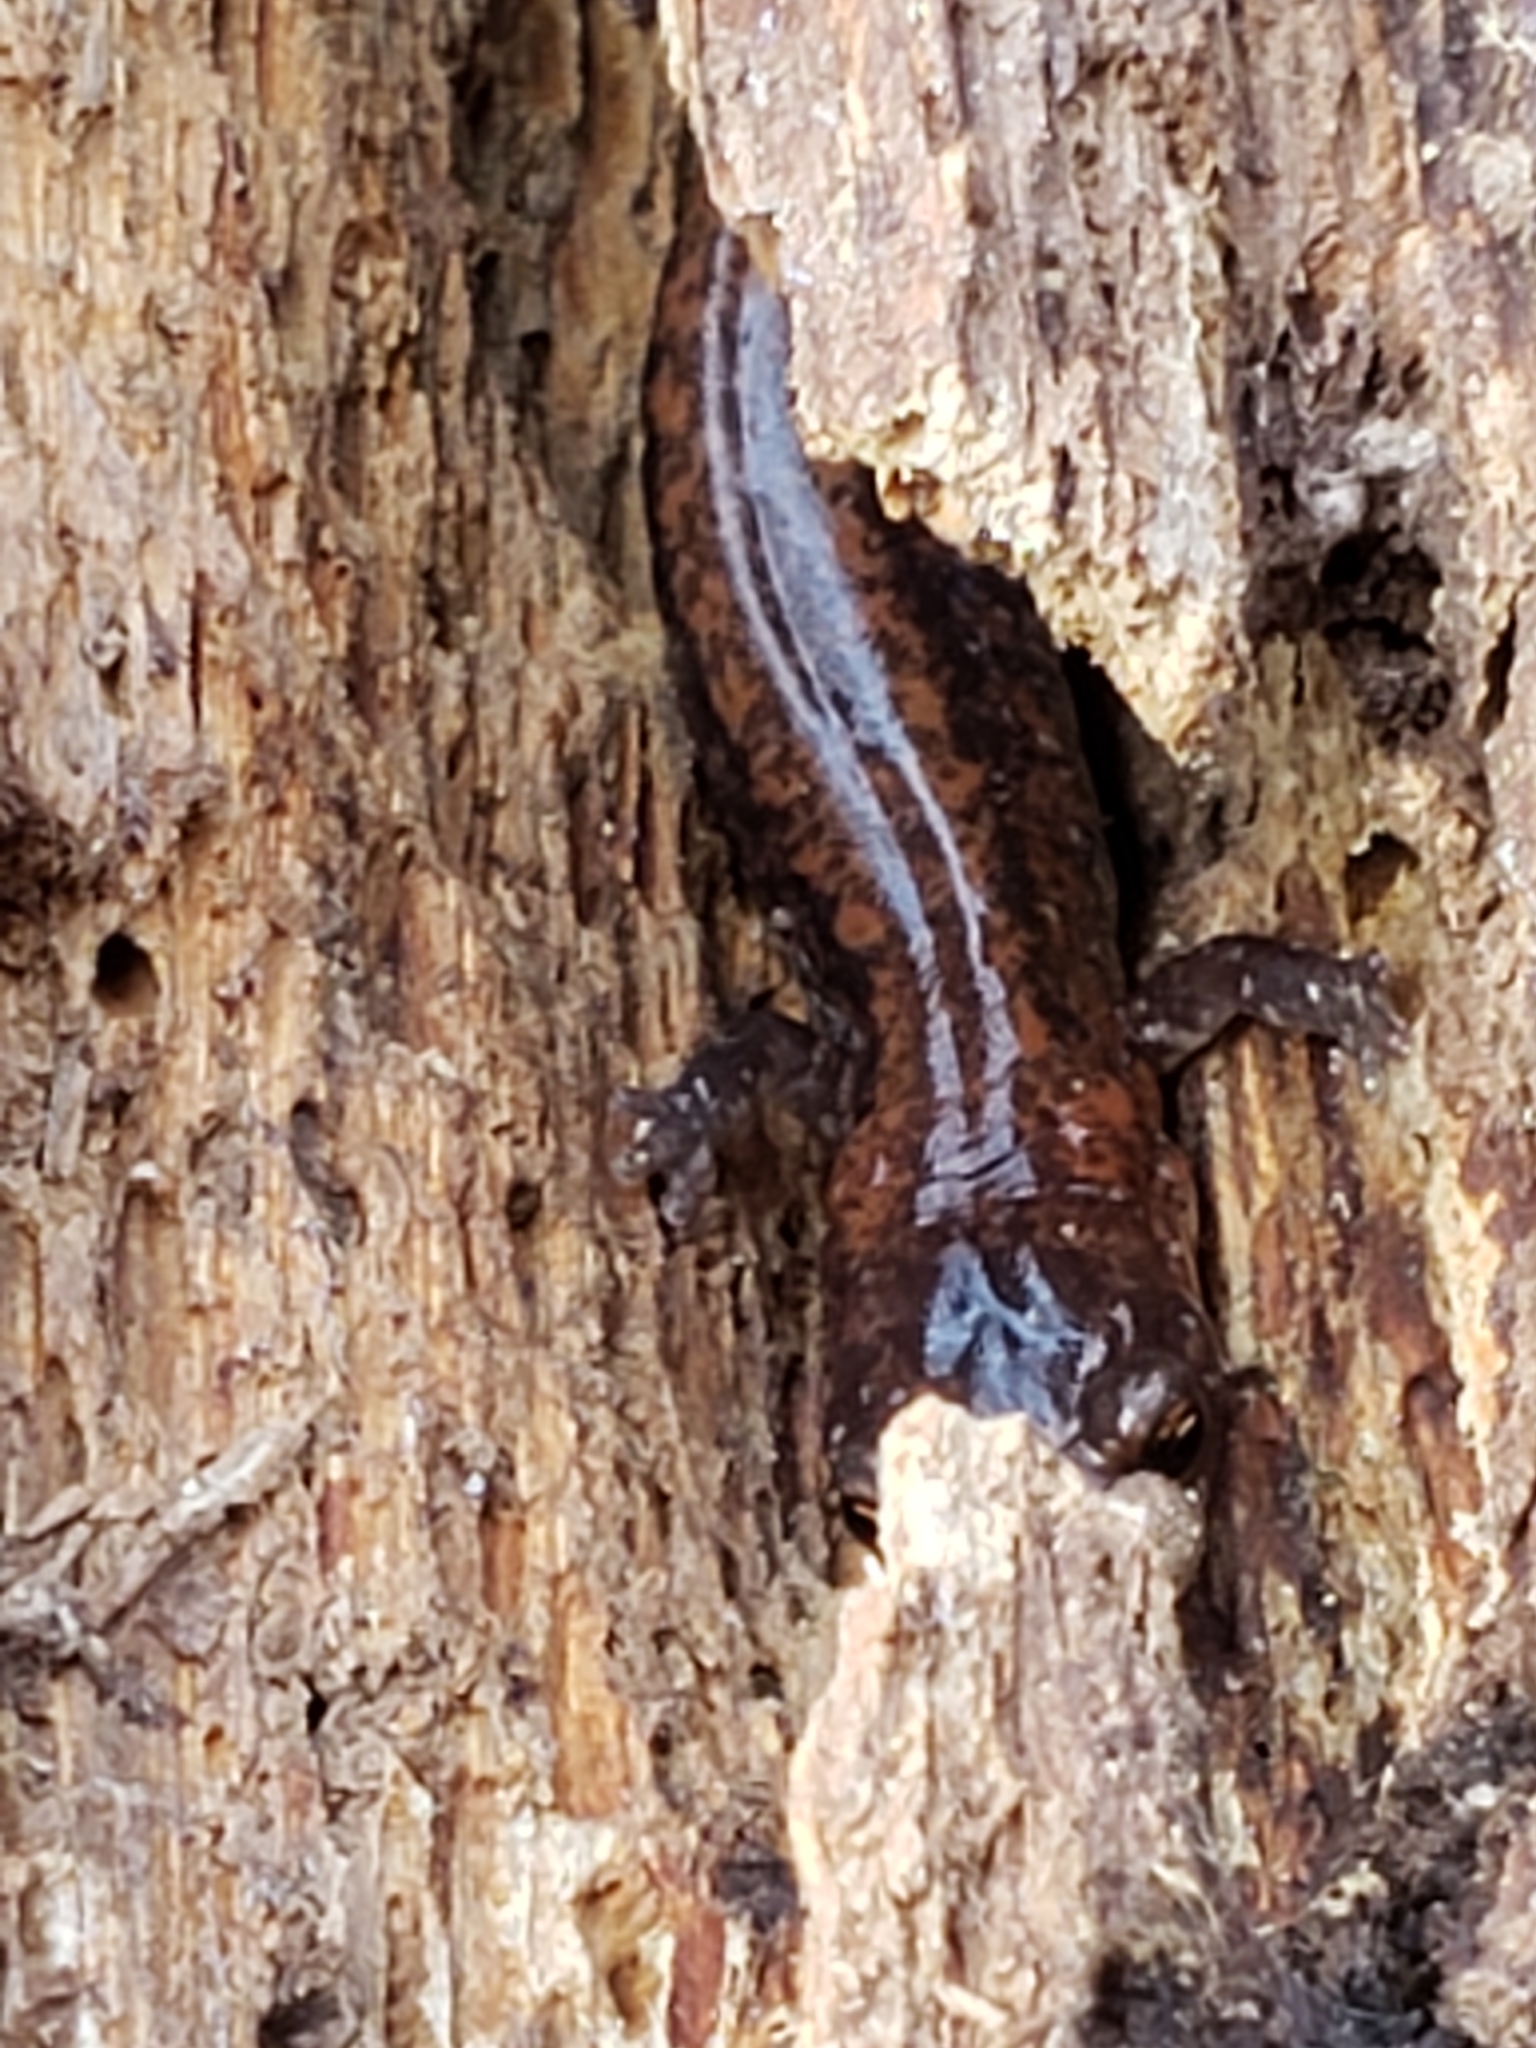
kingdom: Animalia
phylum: Chordata
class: Amphibia
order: Caudata
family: Plethodontidae
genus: Plethodon
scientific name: Plethodon cinereus
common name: Redback salamander
